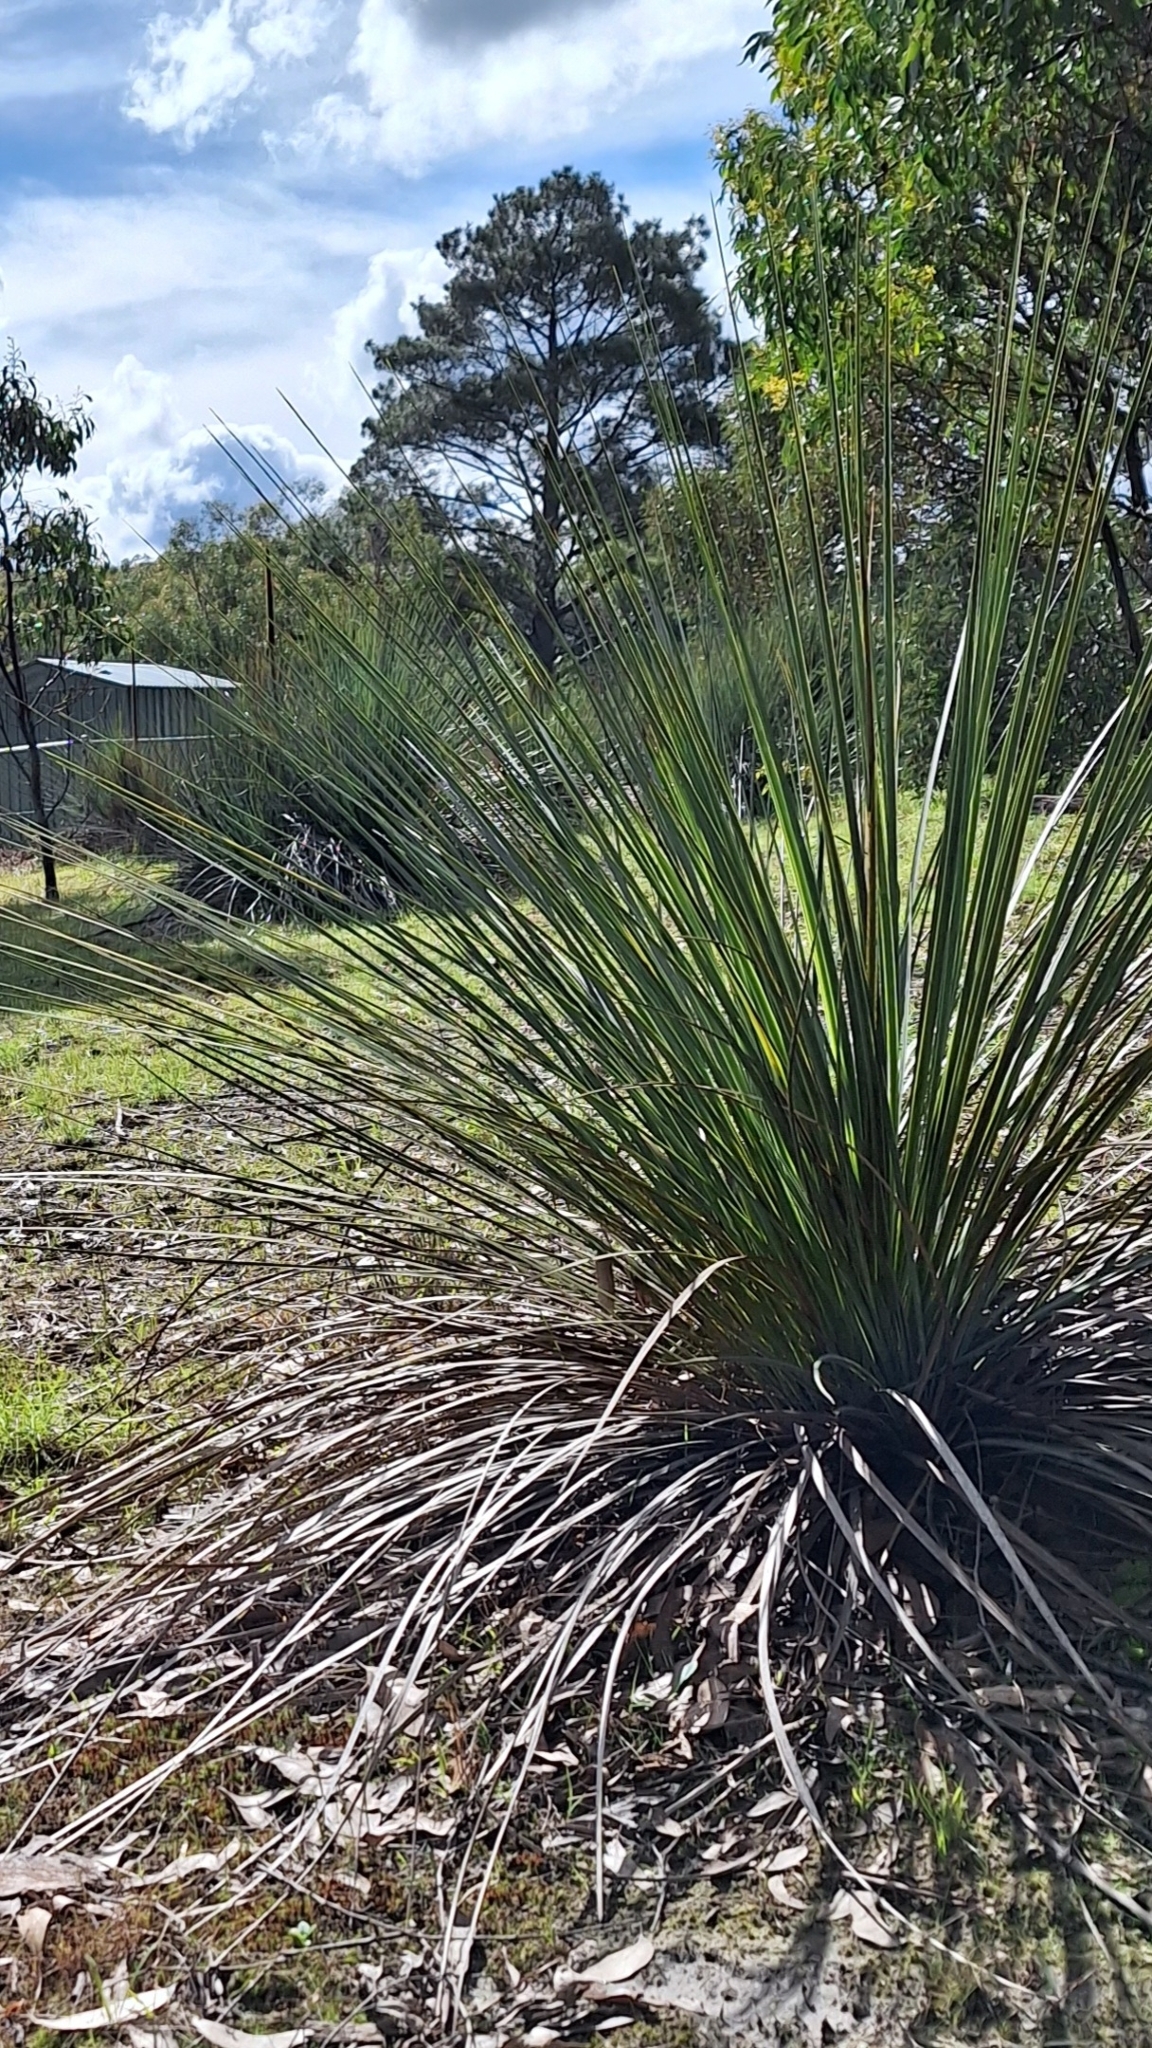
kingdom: Plantae
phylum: Tracheophyta
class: Liliopsida
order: Asparagales
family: Asphodelaceae
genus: Xanthorrhoea
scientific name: Xanthorrhoea semiplana
